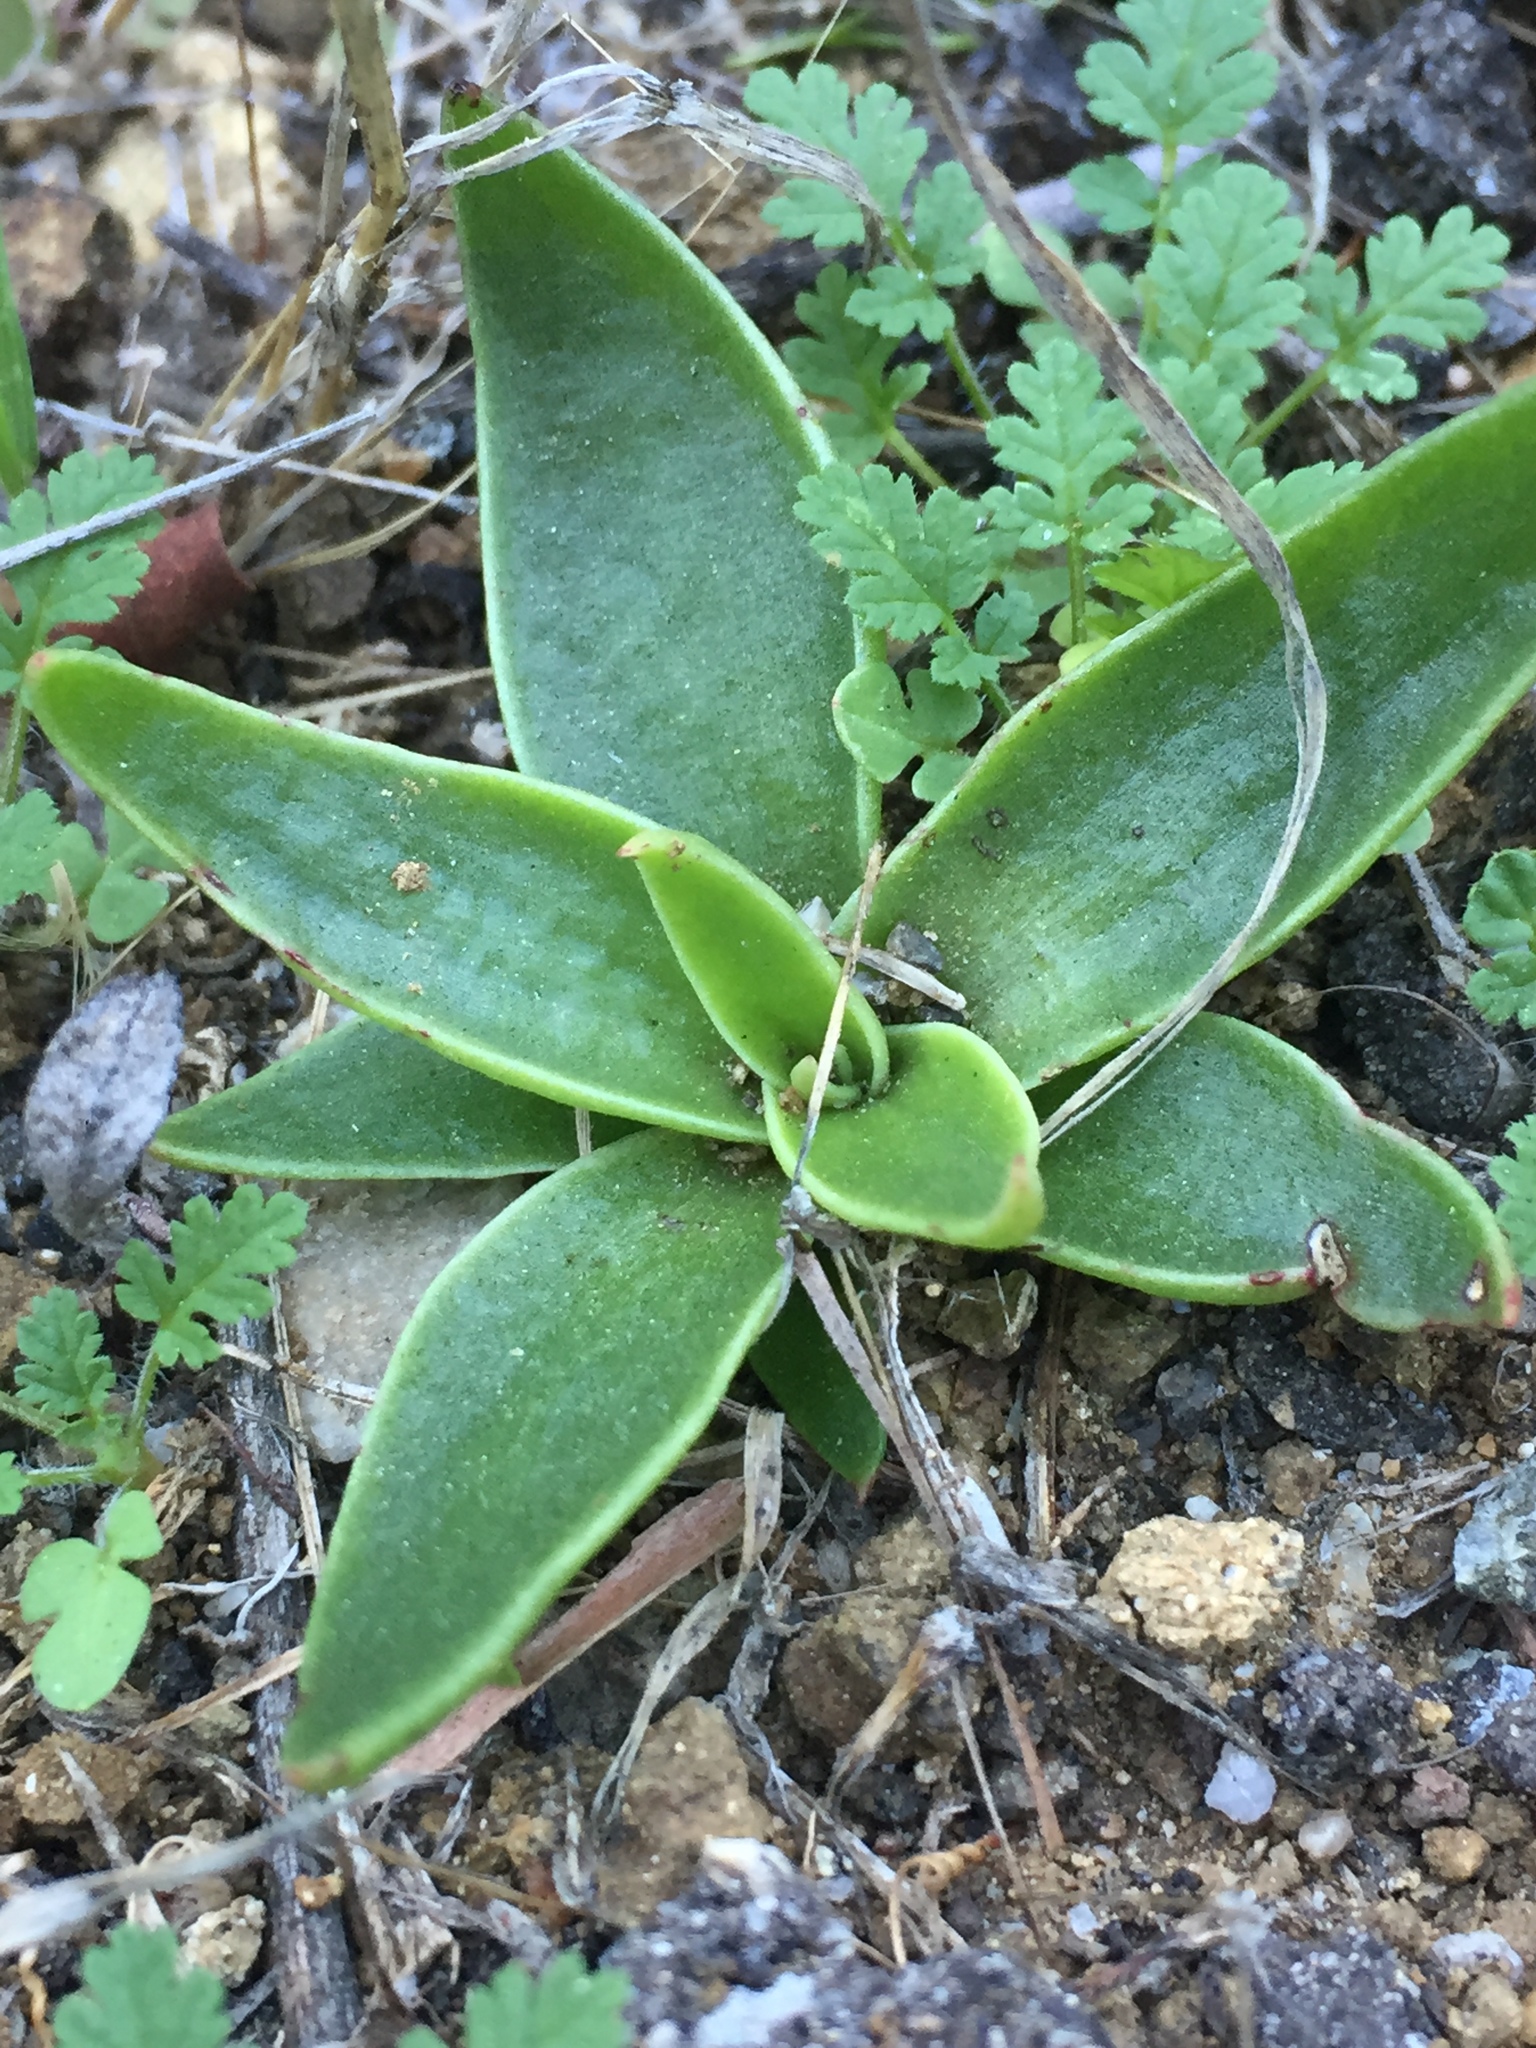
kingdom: Plantae
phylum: Tracheophyta
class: Magnoliopsida
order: Saxifragales
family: Crassulaceae
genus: Dudleya
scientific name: Dudleya lanceolata
